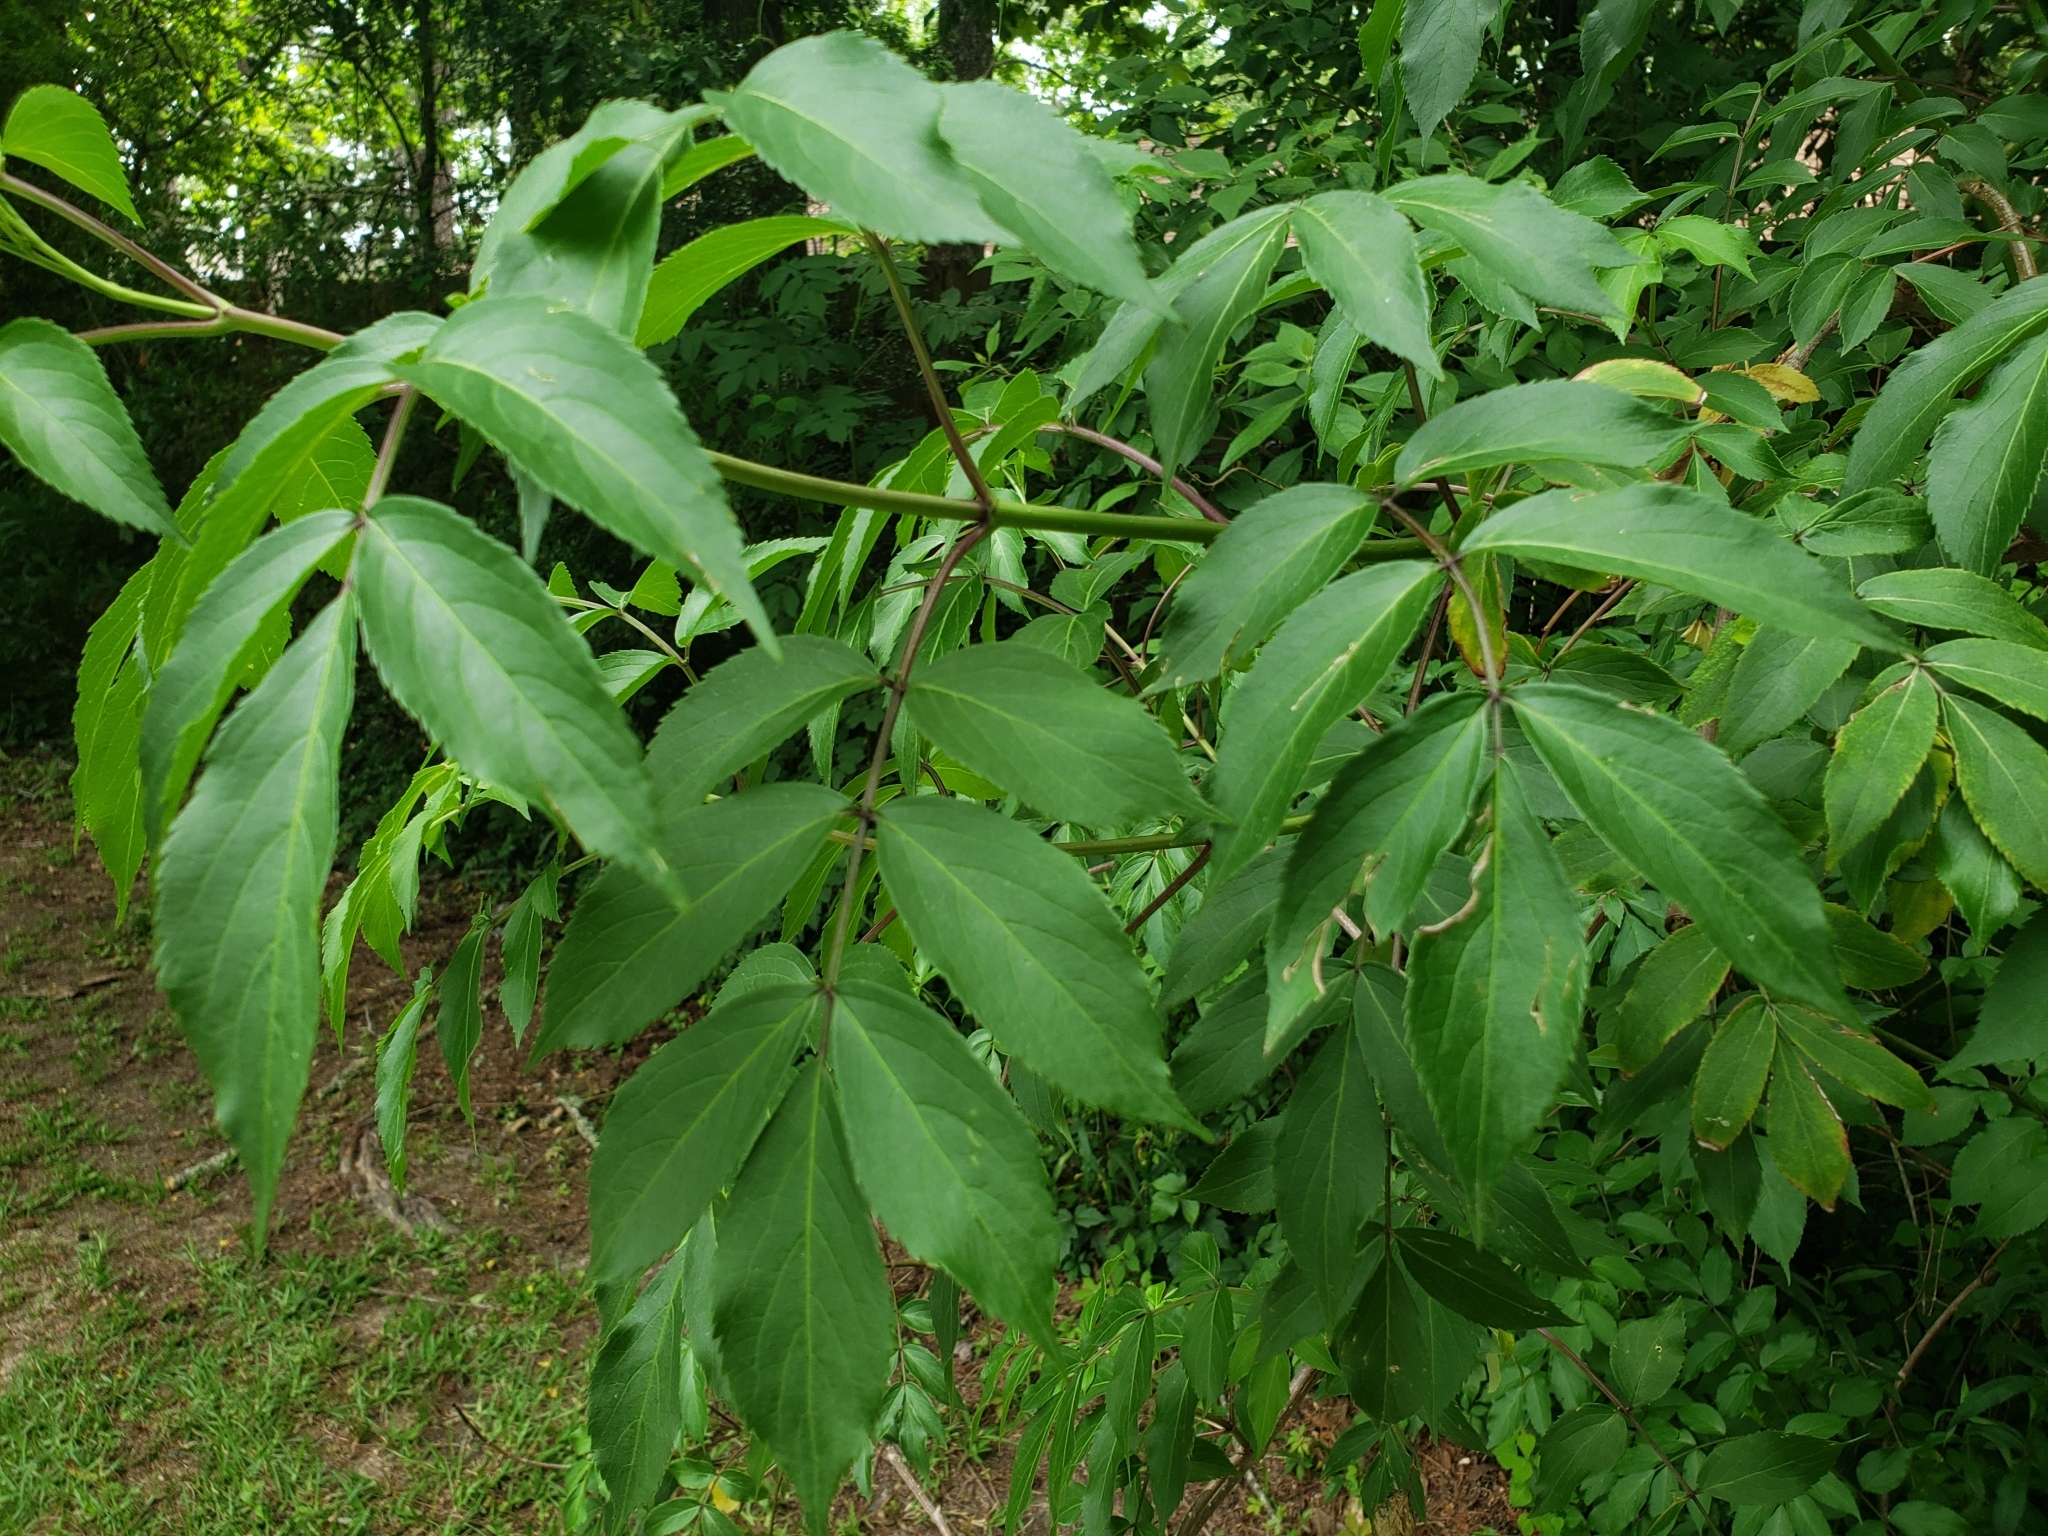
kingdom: Plantae
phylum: Tracheophyta
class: Magnoliopsida
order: Dipsacales
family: Viburnaceae
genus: Sambucus
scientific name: Sambucus canadensis
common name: American elder
